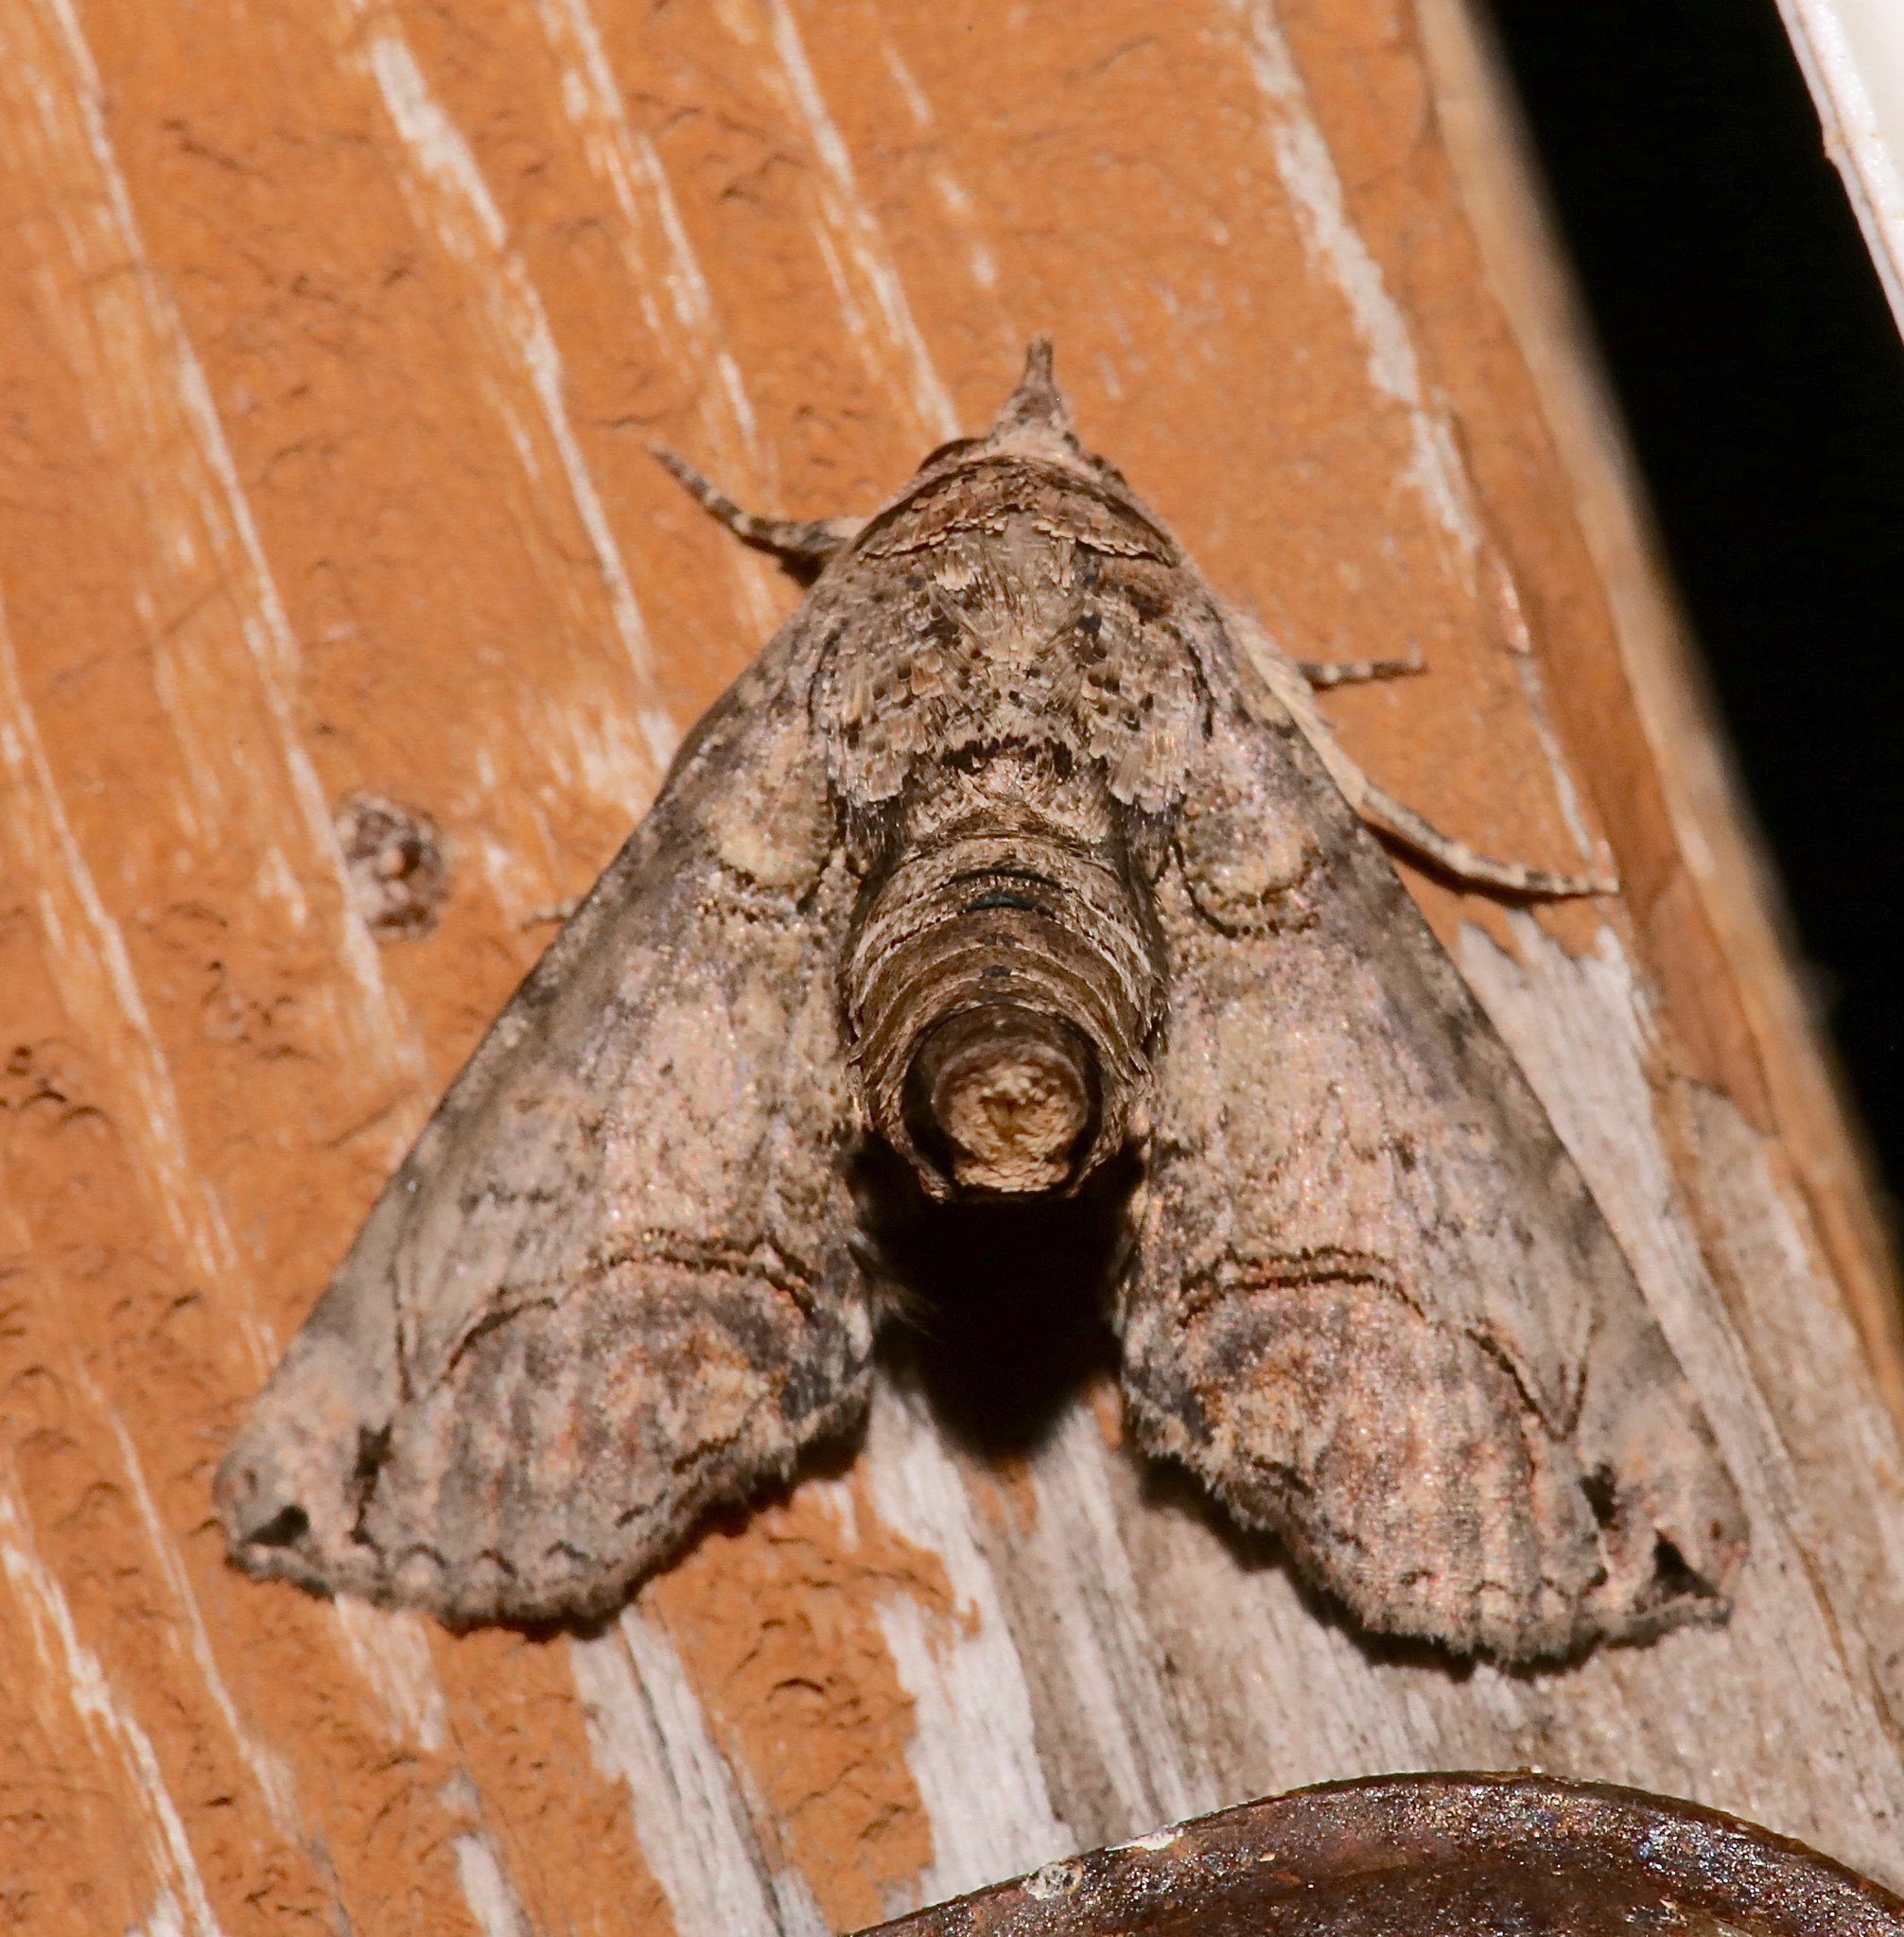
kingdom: Animalia
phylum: Arthropoda
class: Insecta
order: Lepidoptera
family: Euteliidae
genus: Paectes
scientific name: Paectes abrostoloides
